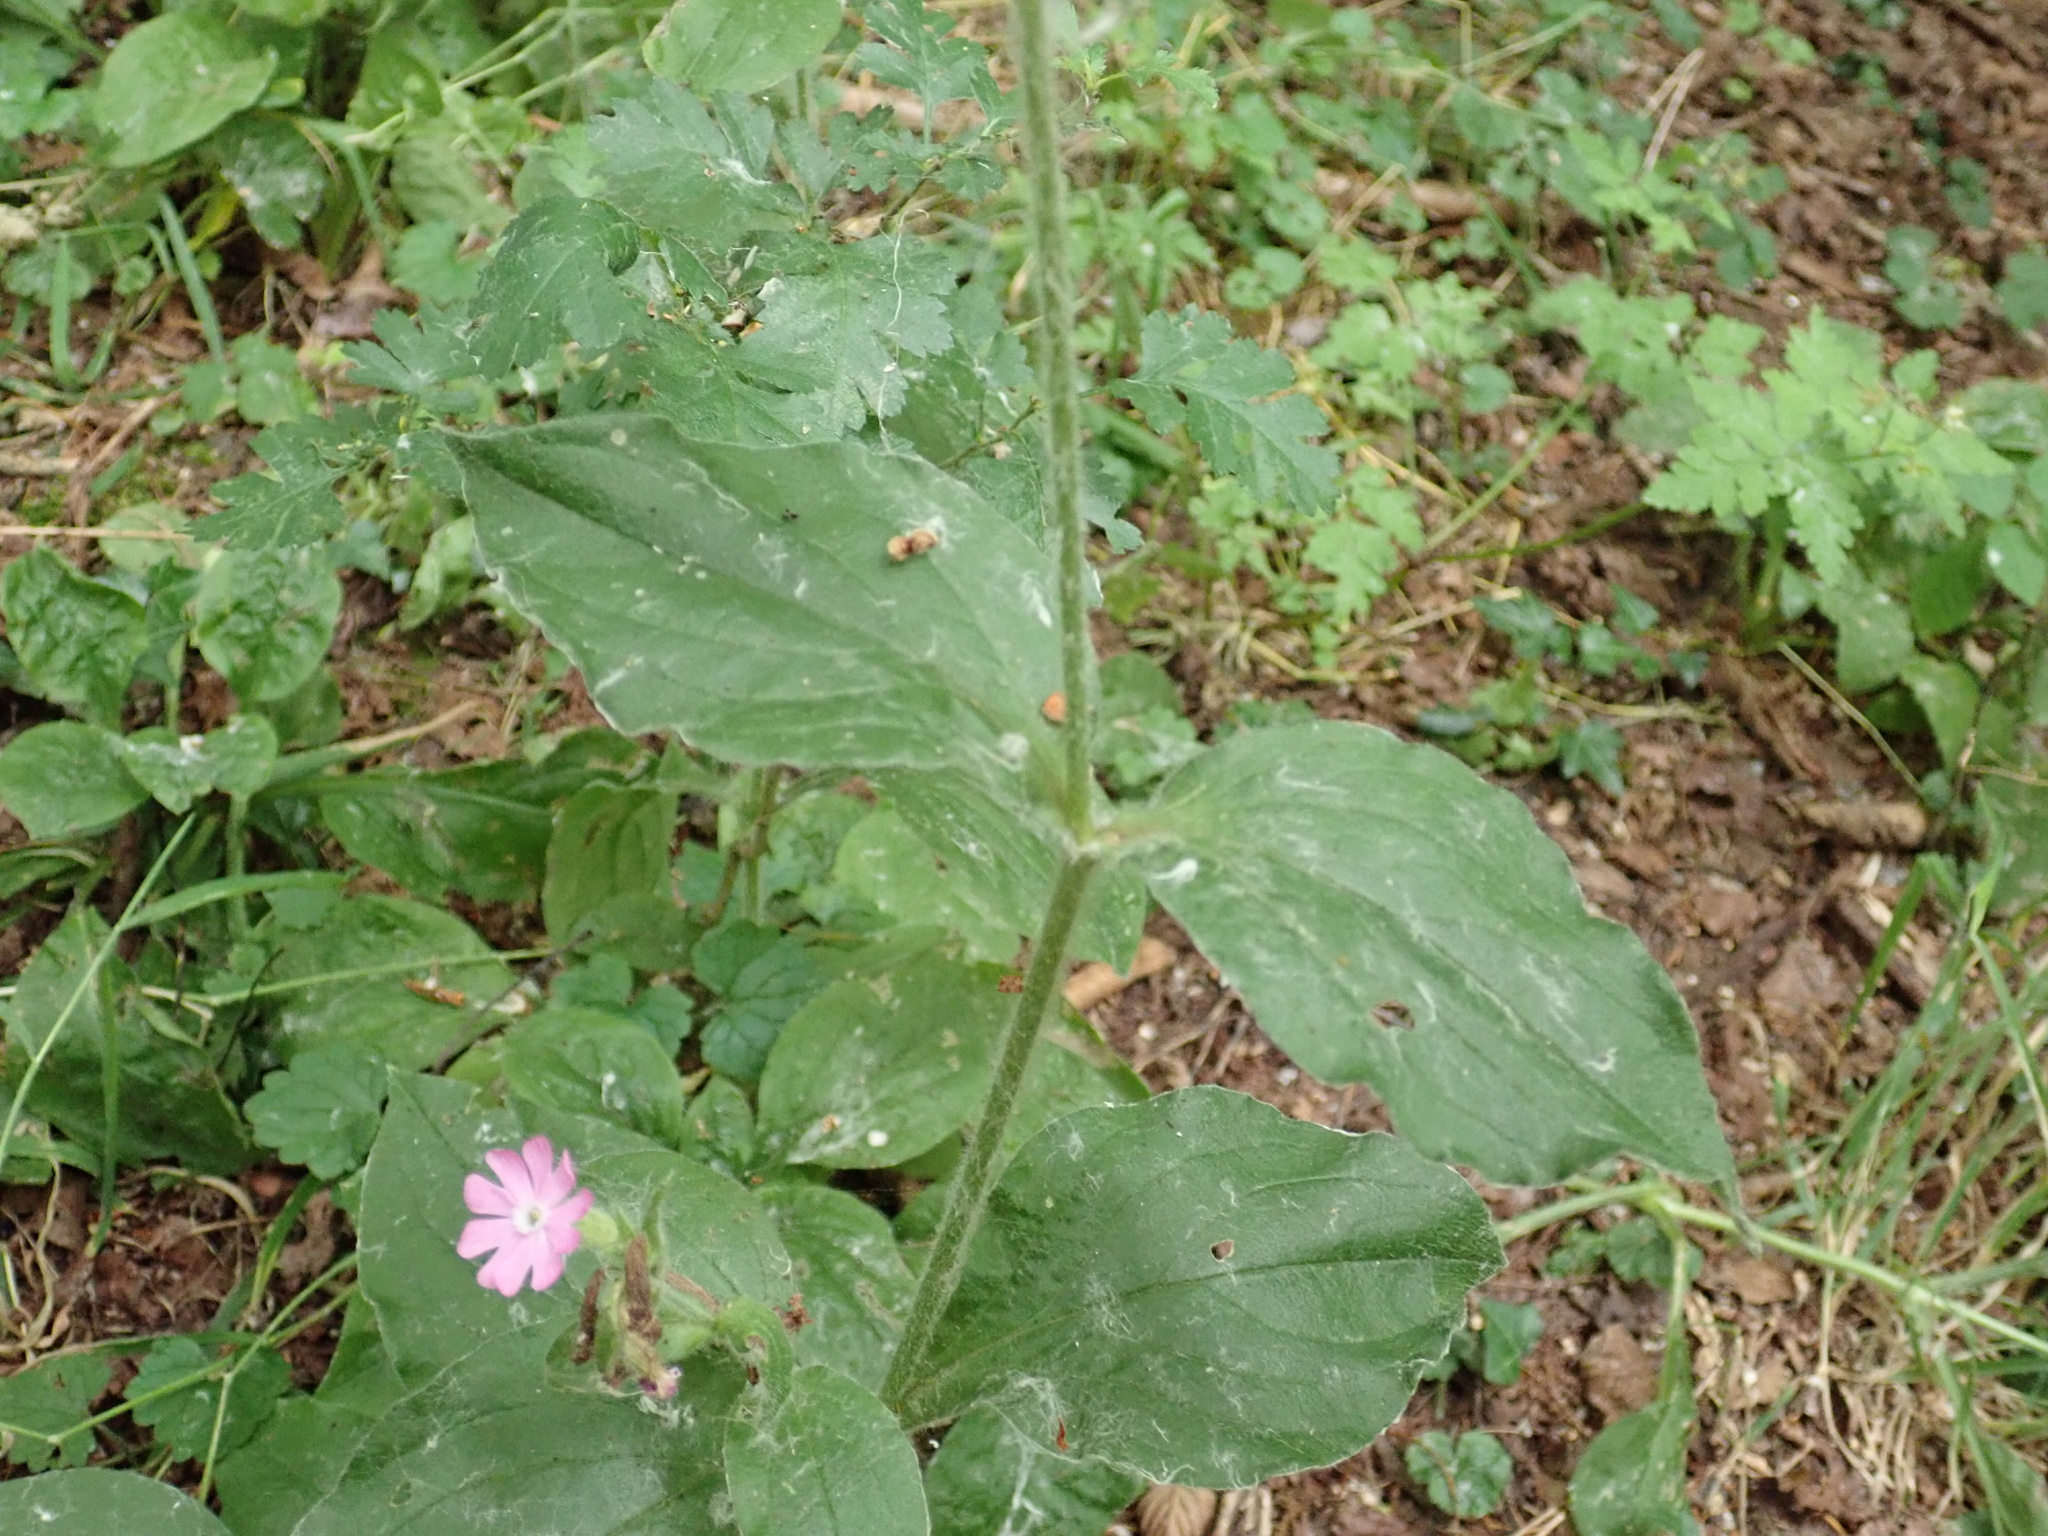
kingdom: Plantae
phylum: Tracheophyta
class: Magnoliopsida
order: Caryophyllales
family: Caryophyllaceae
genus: Silene
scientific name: Silene dioica
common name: Red campion
